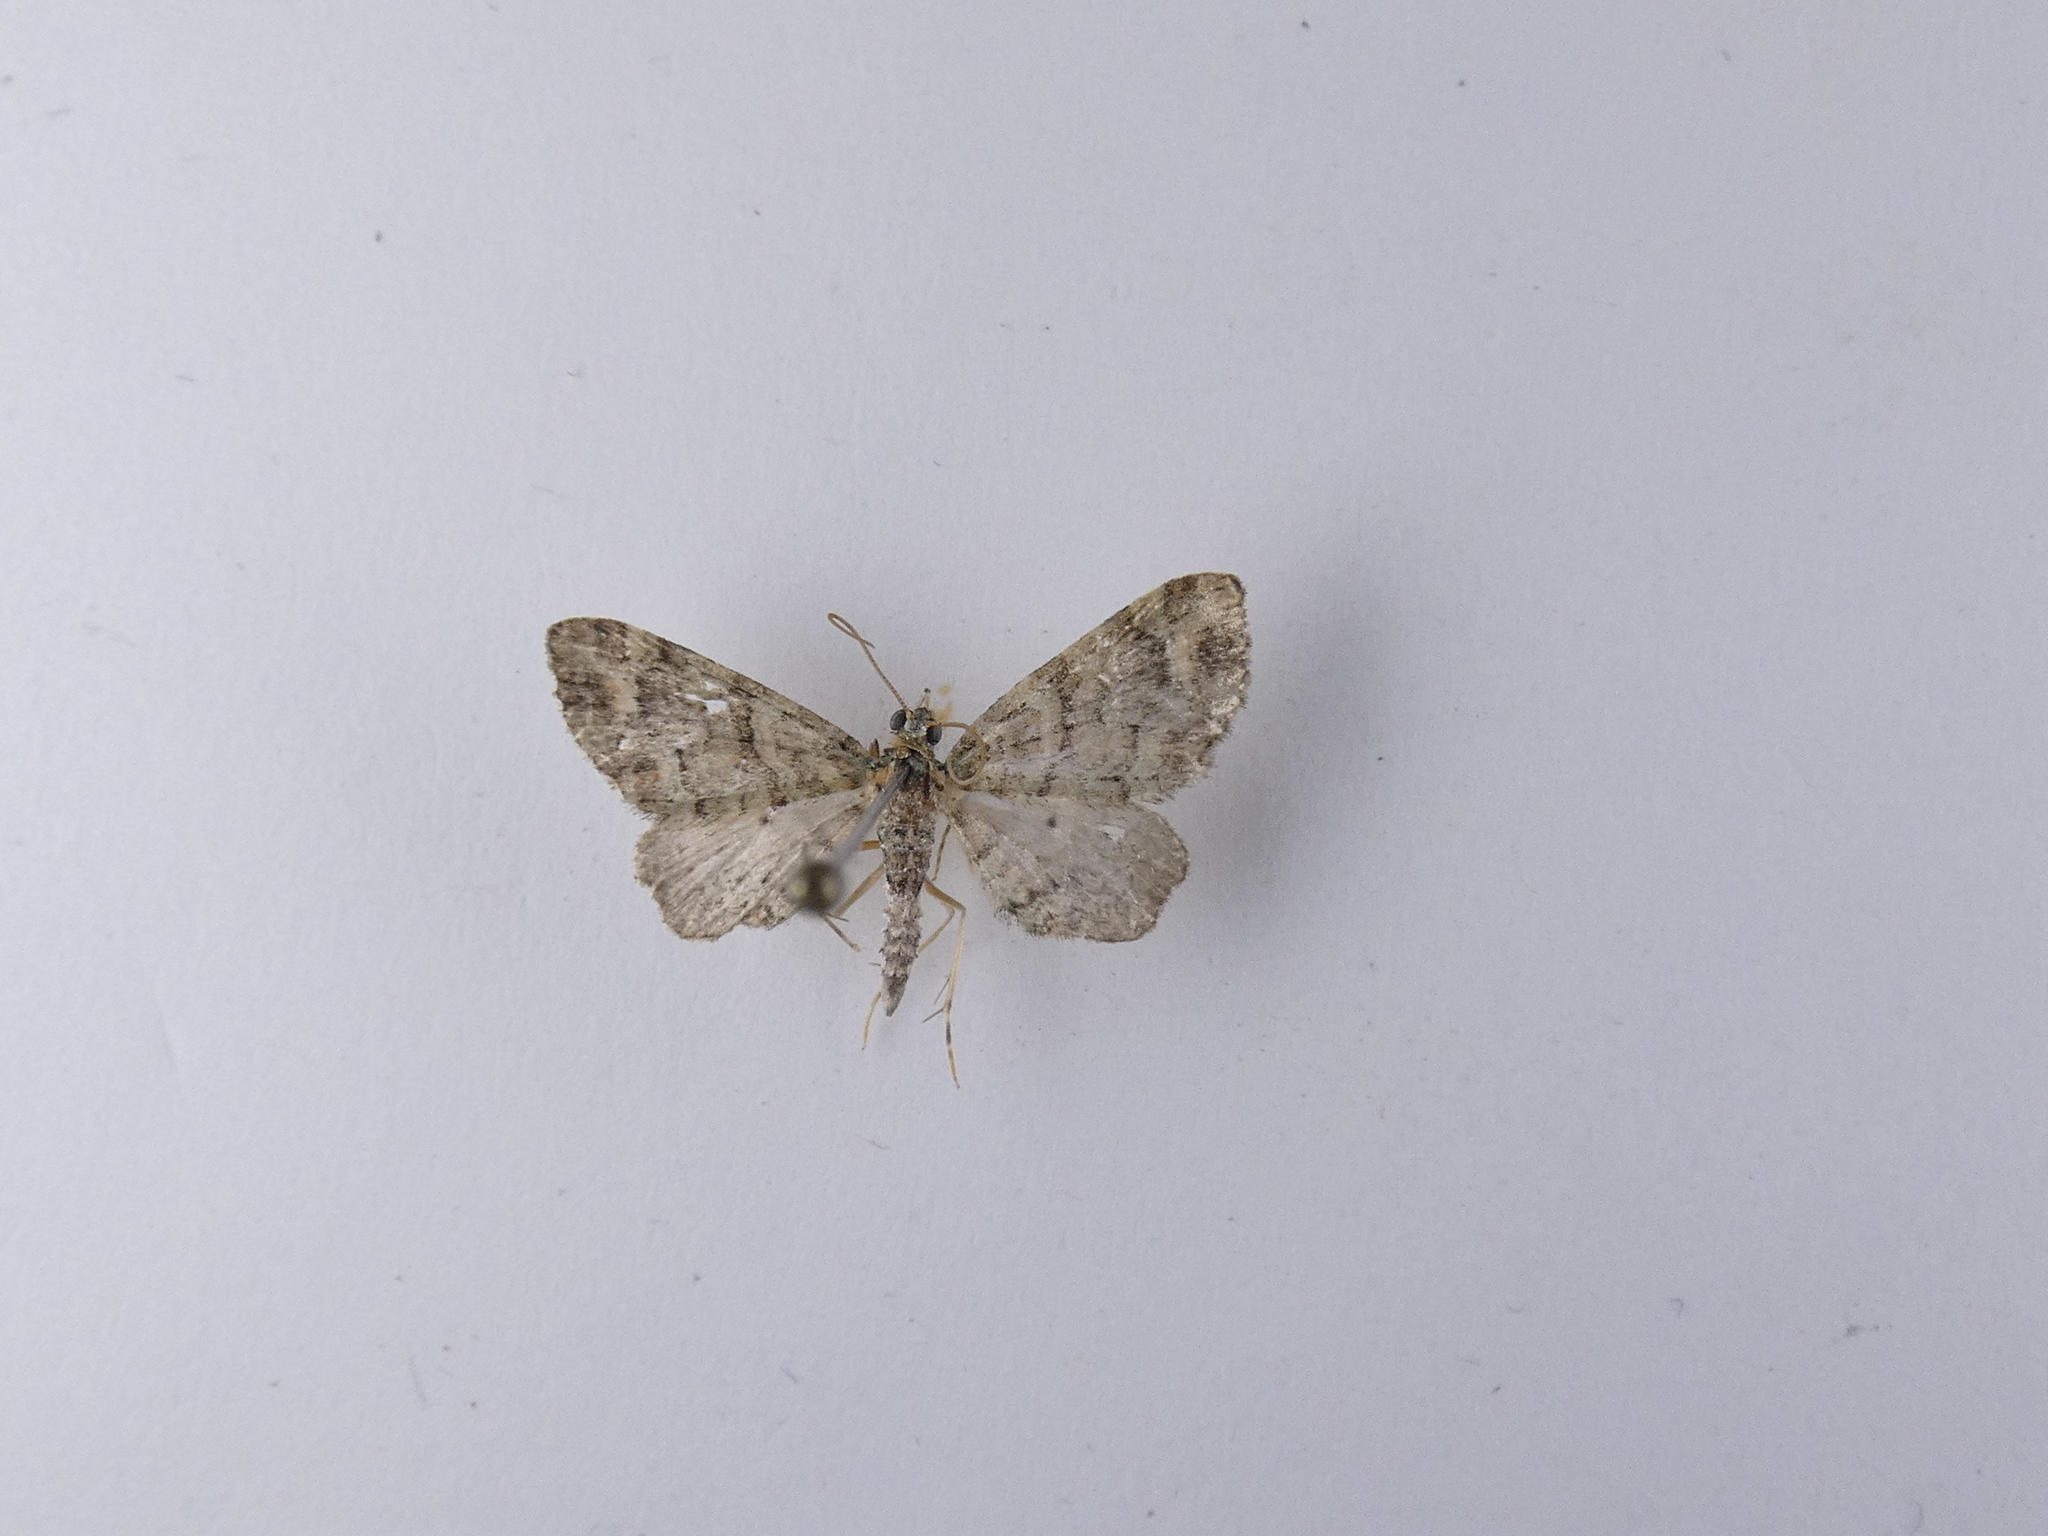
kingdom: Animalia
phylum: Arthropoda
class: Insecta
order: Lepidoptera
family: Geometridae
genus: Idaea
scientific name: Idaea mutanda
